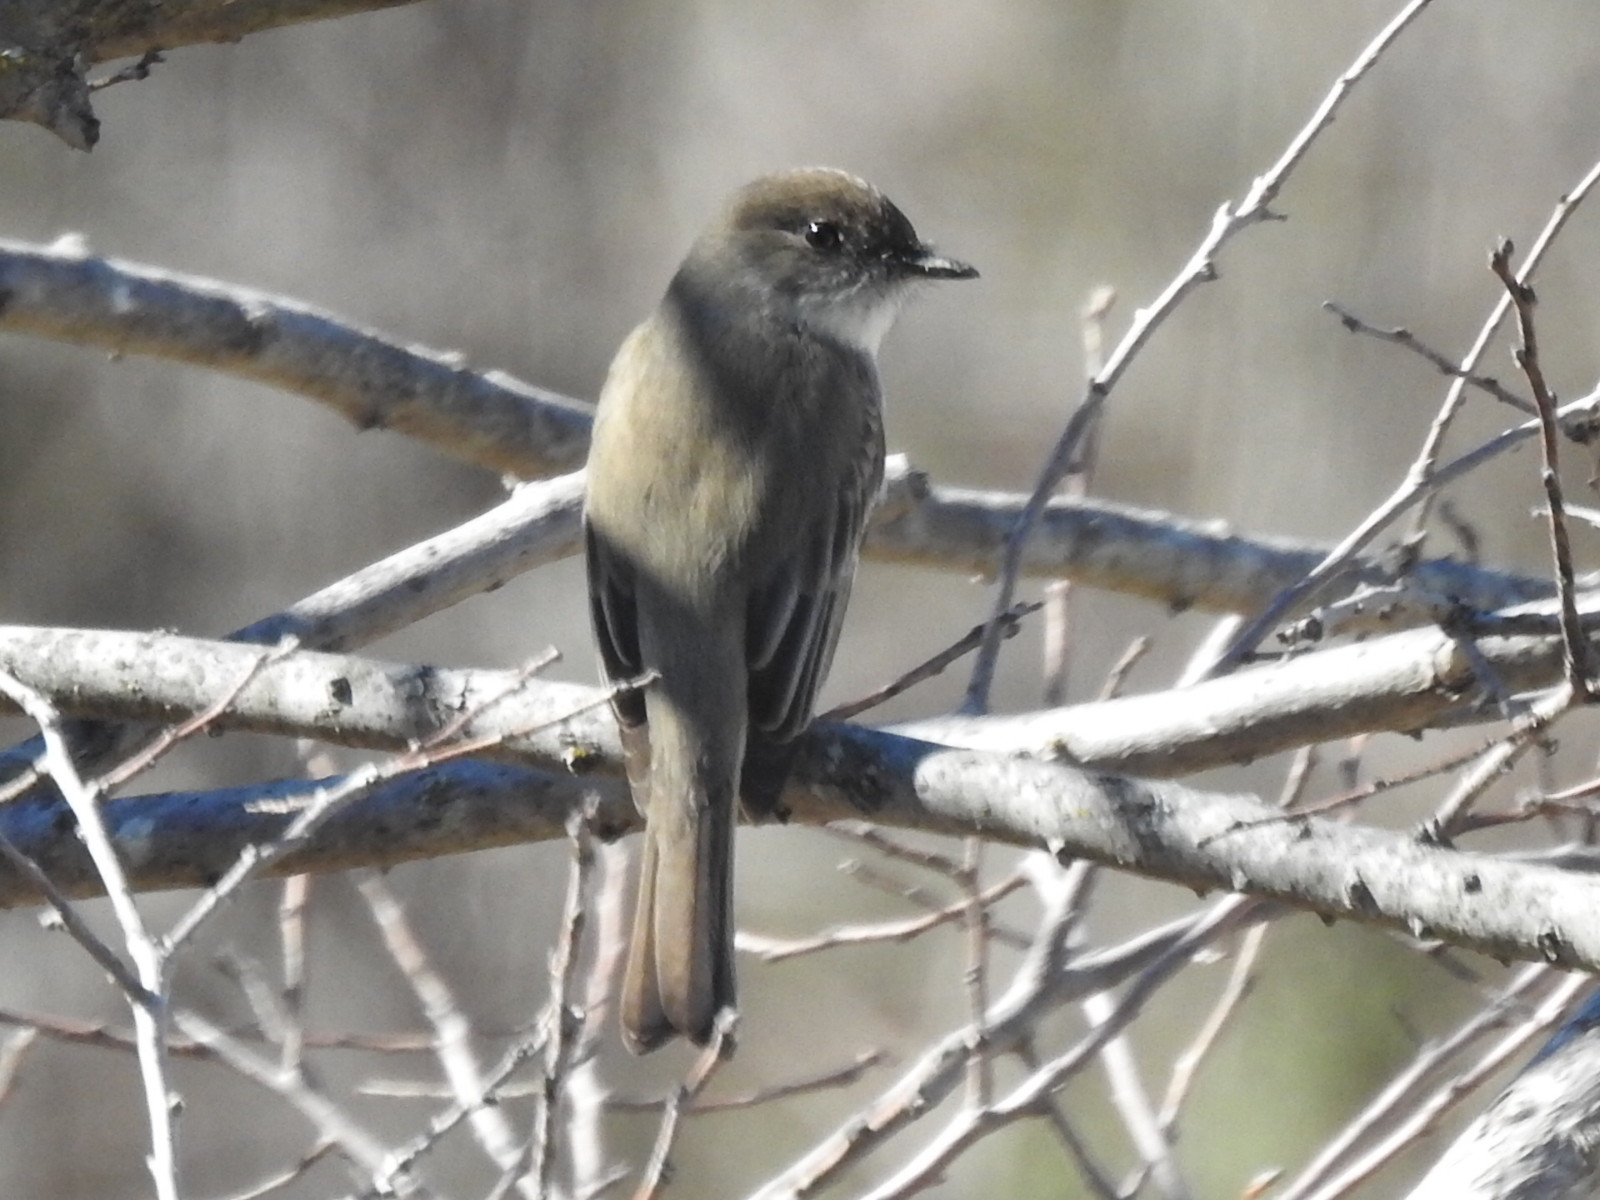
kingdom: Animalia
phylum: Chordata
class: Aves
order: Passeriformes
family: Tyrannidae
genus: Sayornis
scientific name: Sayornis phoebe
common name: Eastern phoebe
